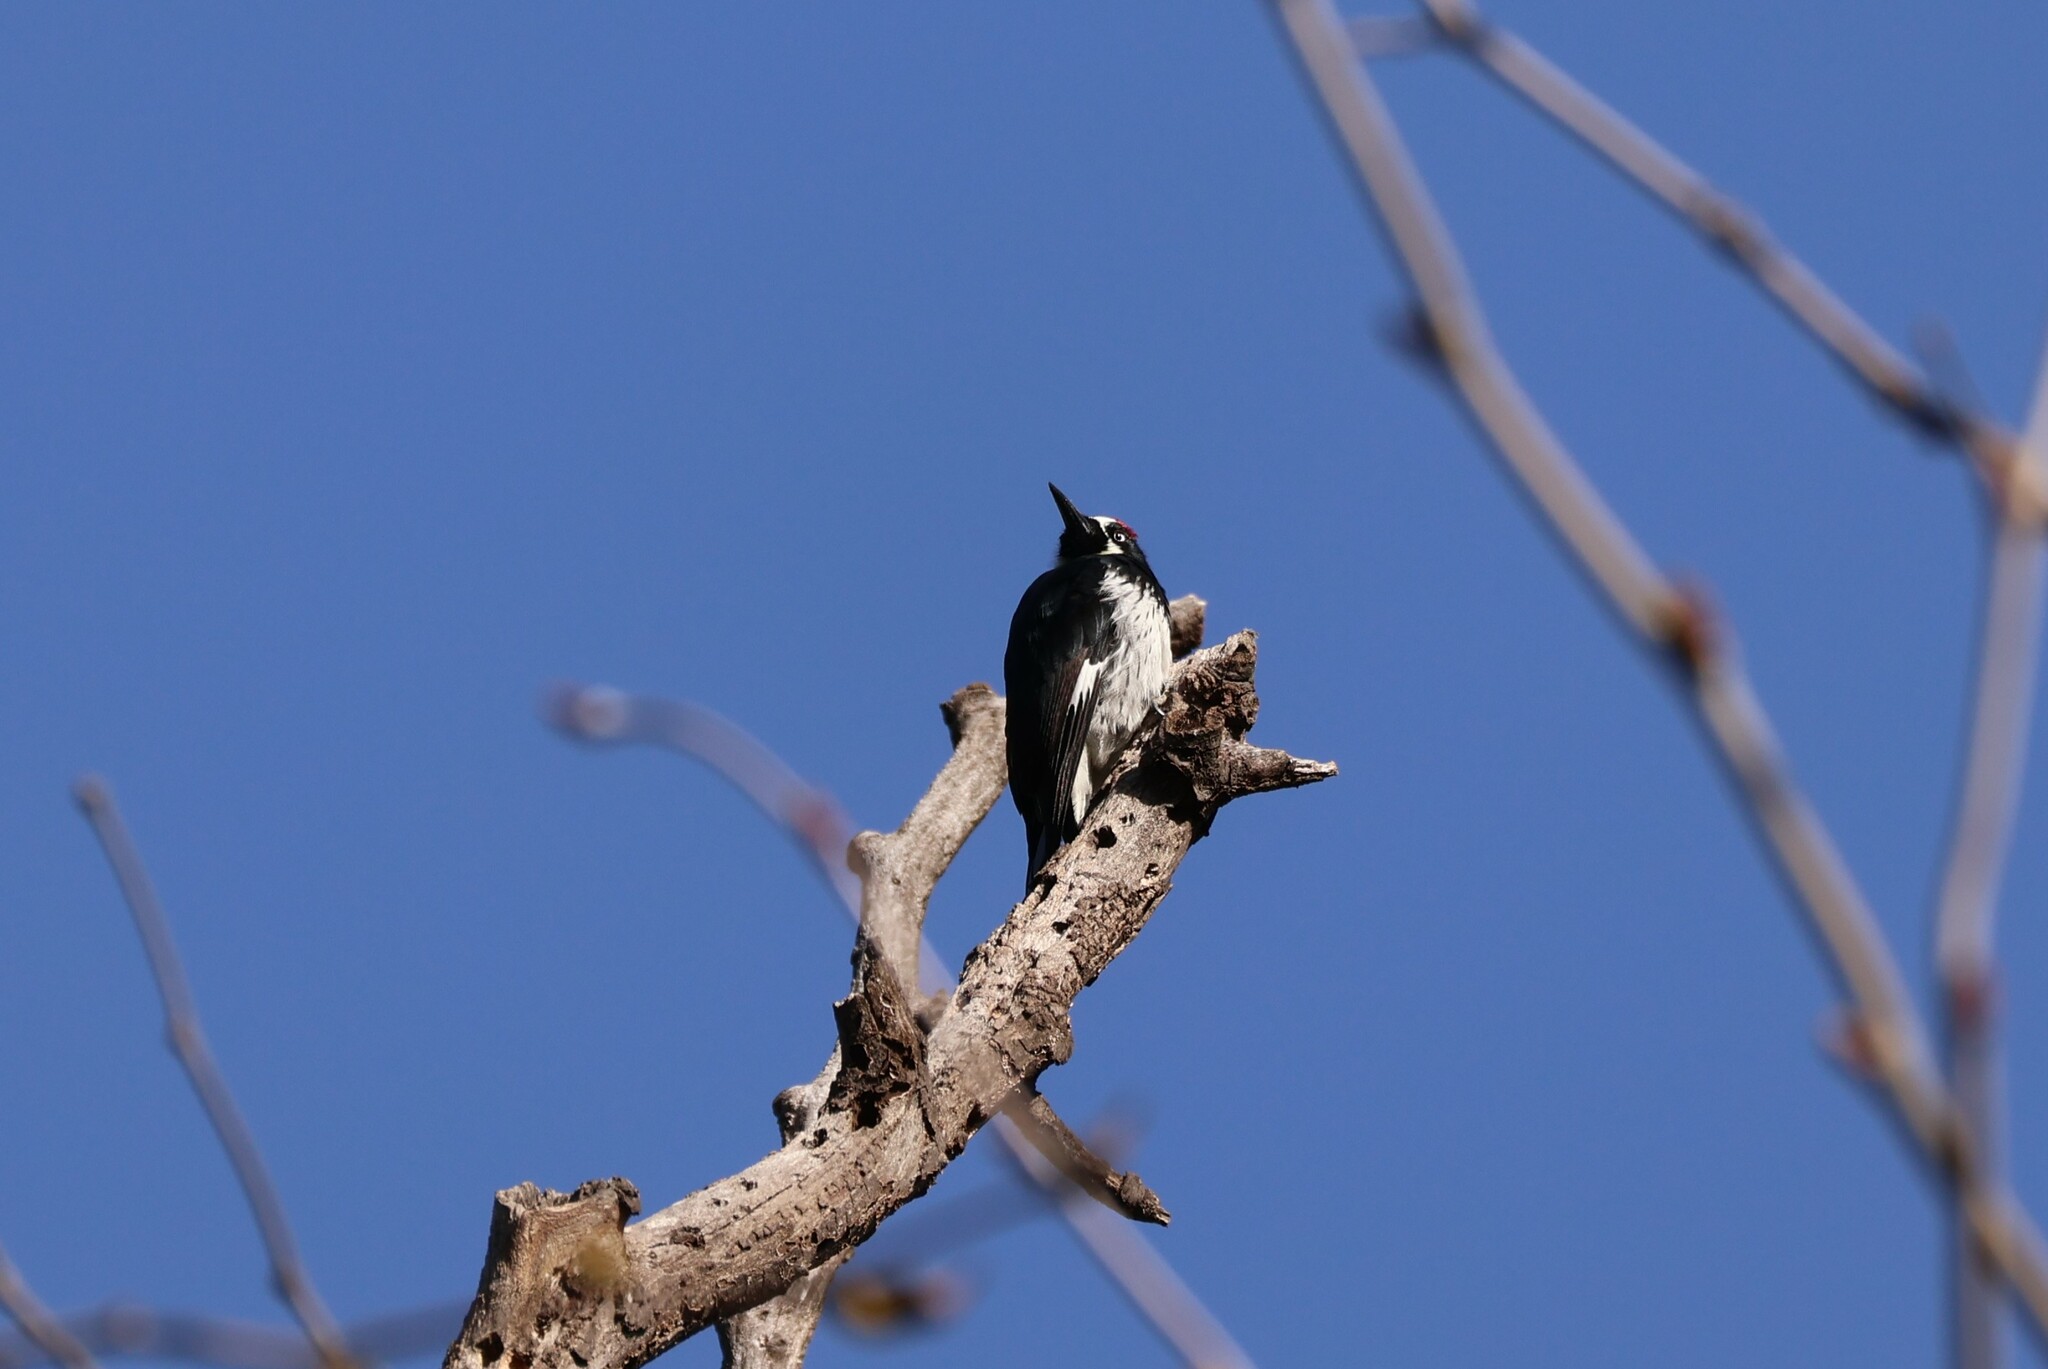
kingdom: Animalia
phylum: Chordata
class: Aves
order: Piciformes
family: Picidae
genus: Melanerpes
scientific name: Melanerpes formicivorus
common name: Acorn woodpecker
